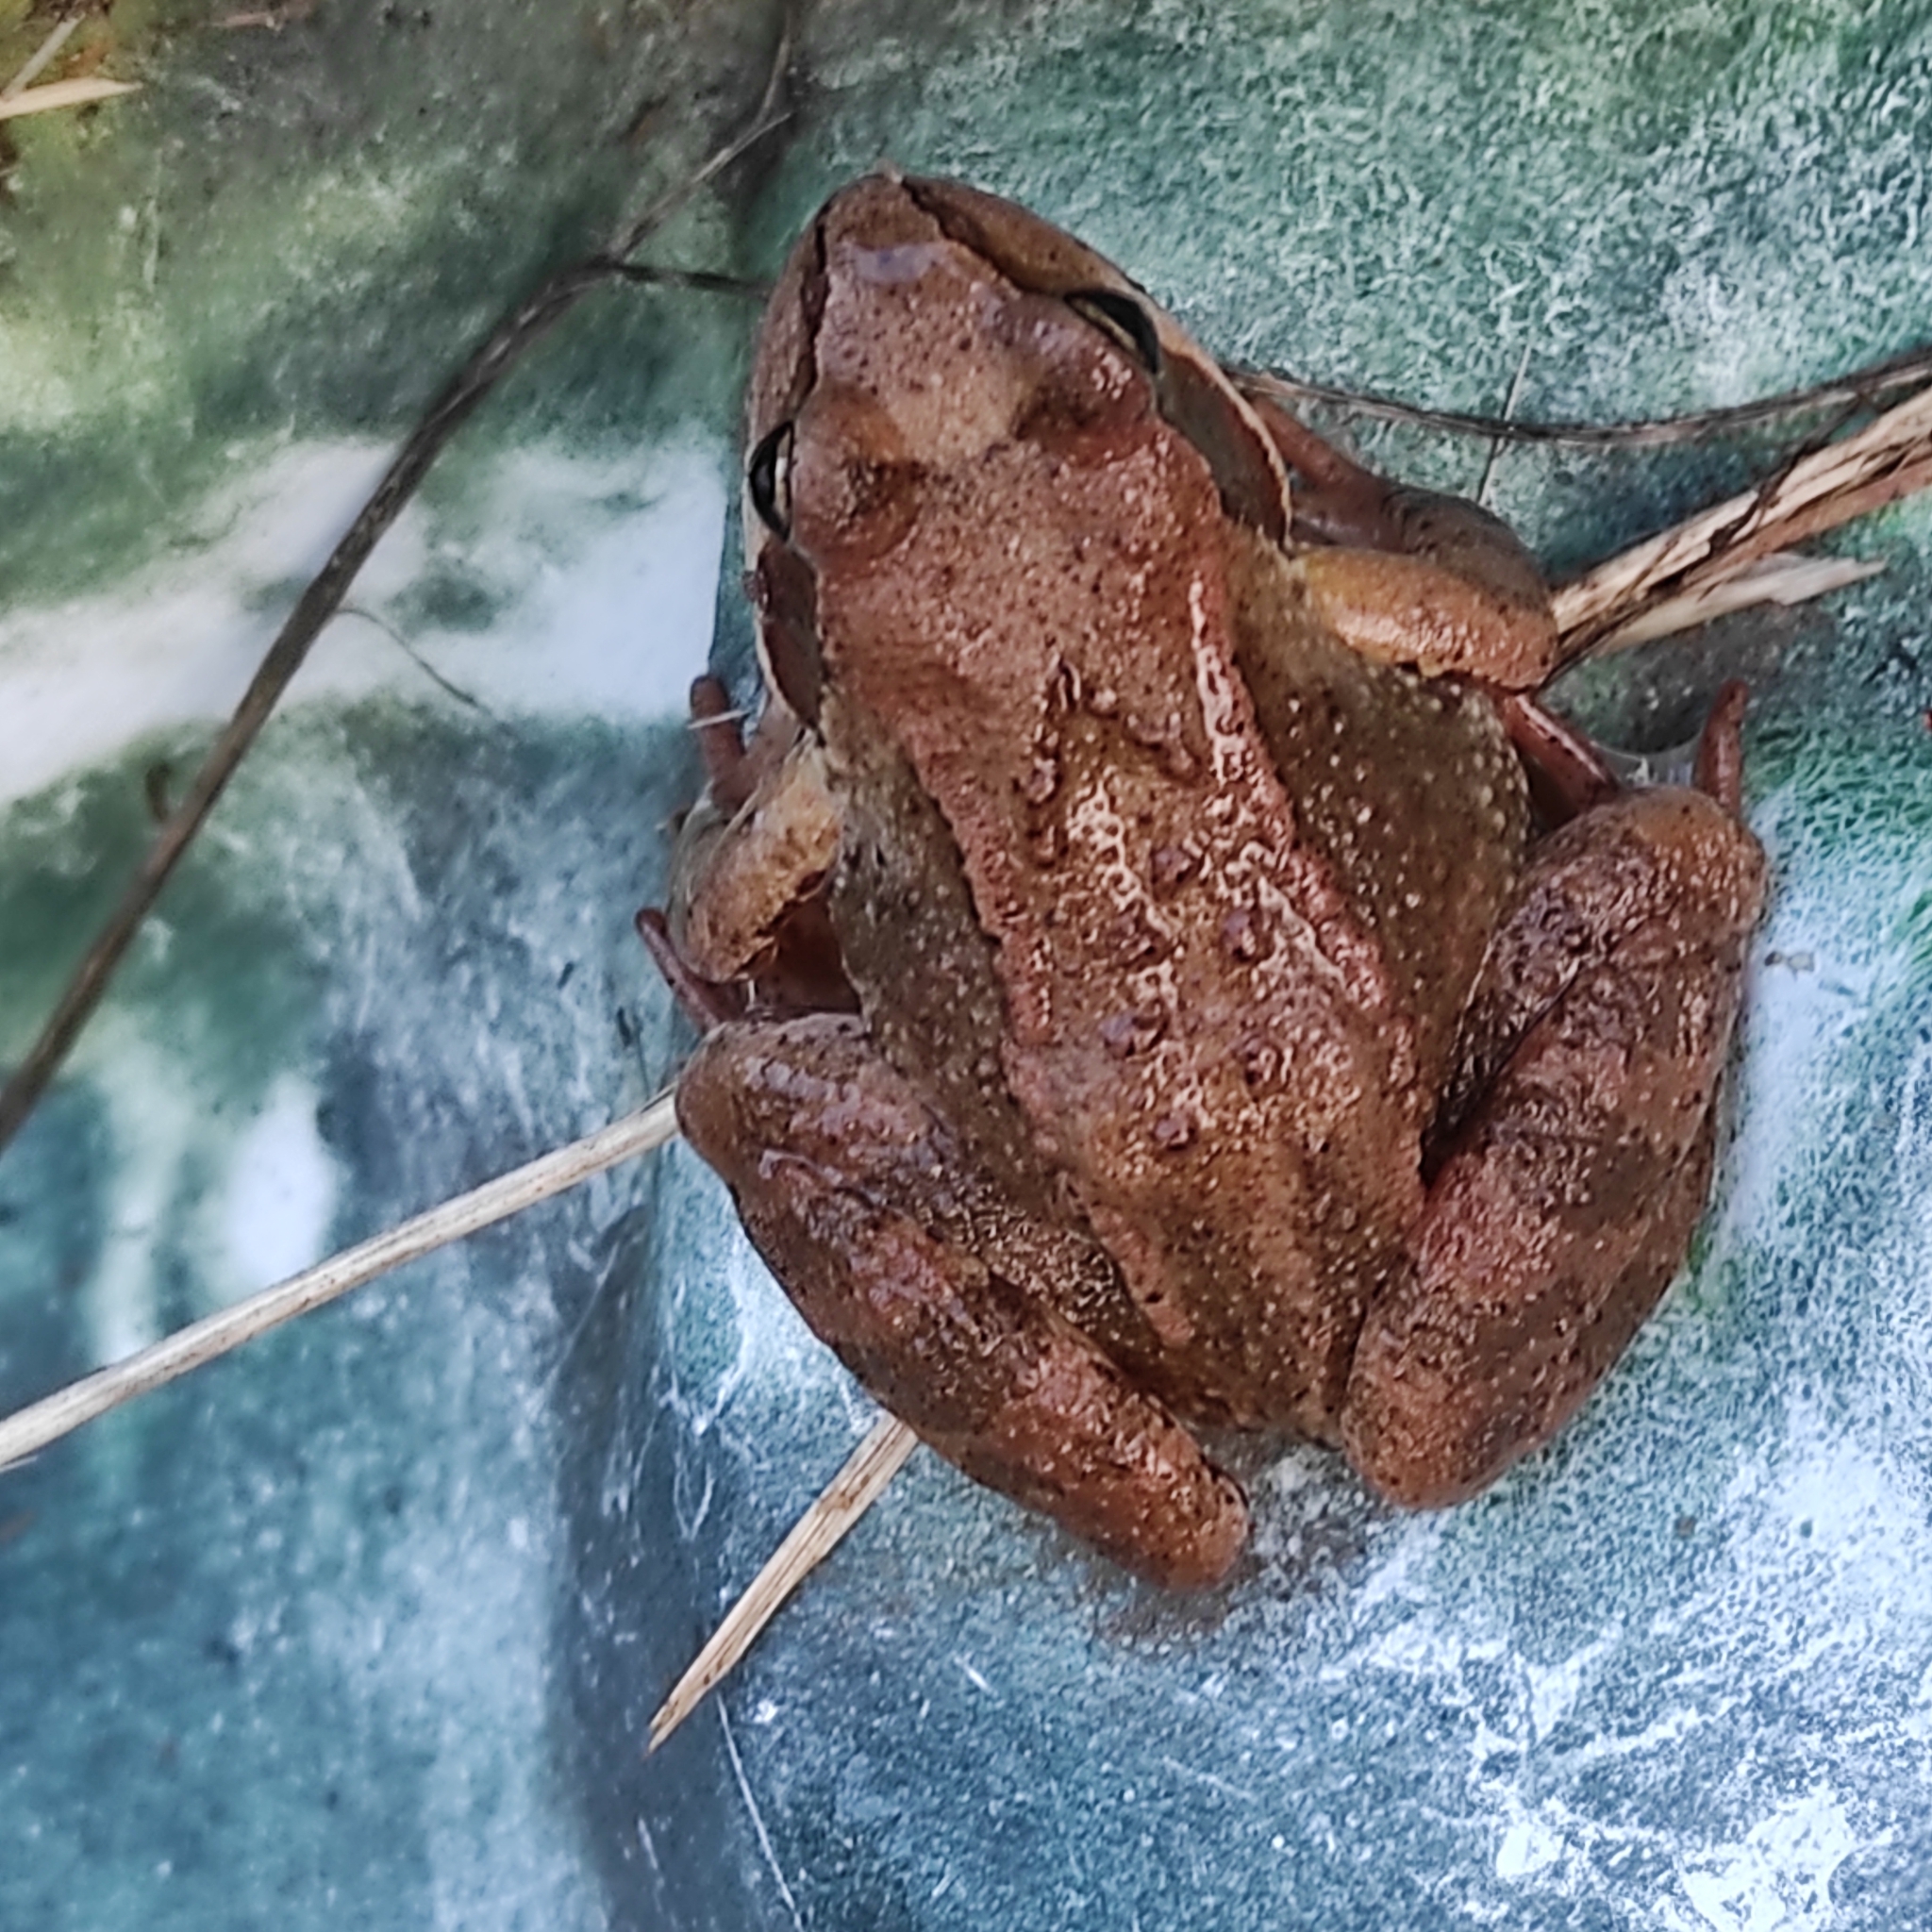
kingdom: Animalia
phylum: Chordata
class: Amphibia
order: Anura
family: Ranidae
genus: Rana
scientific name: Rana temporaria
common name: Common frog
